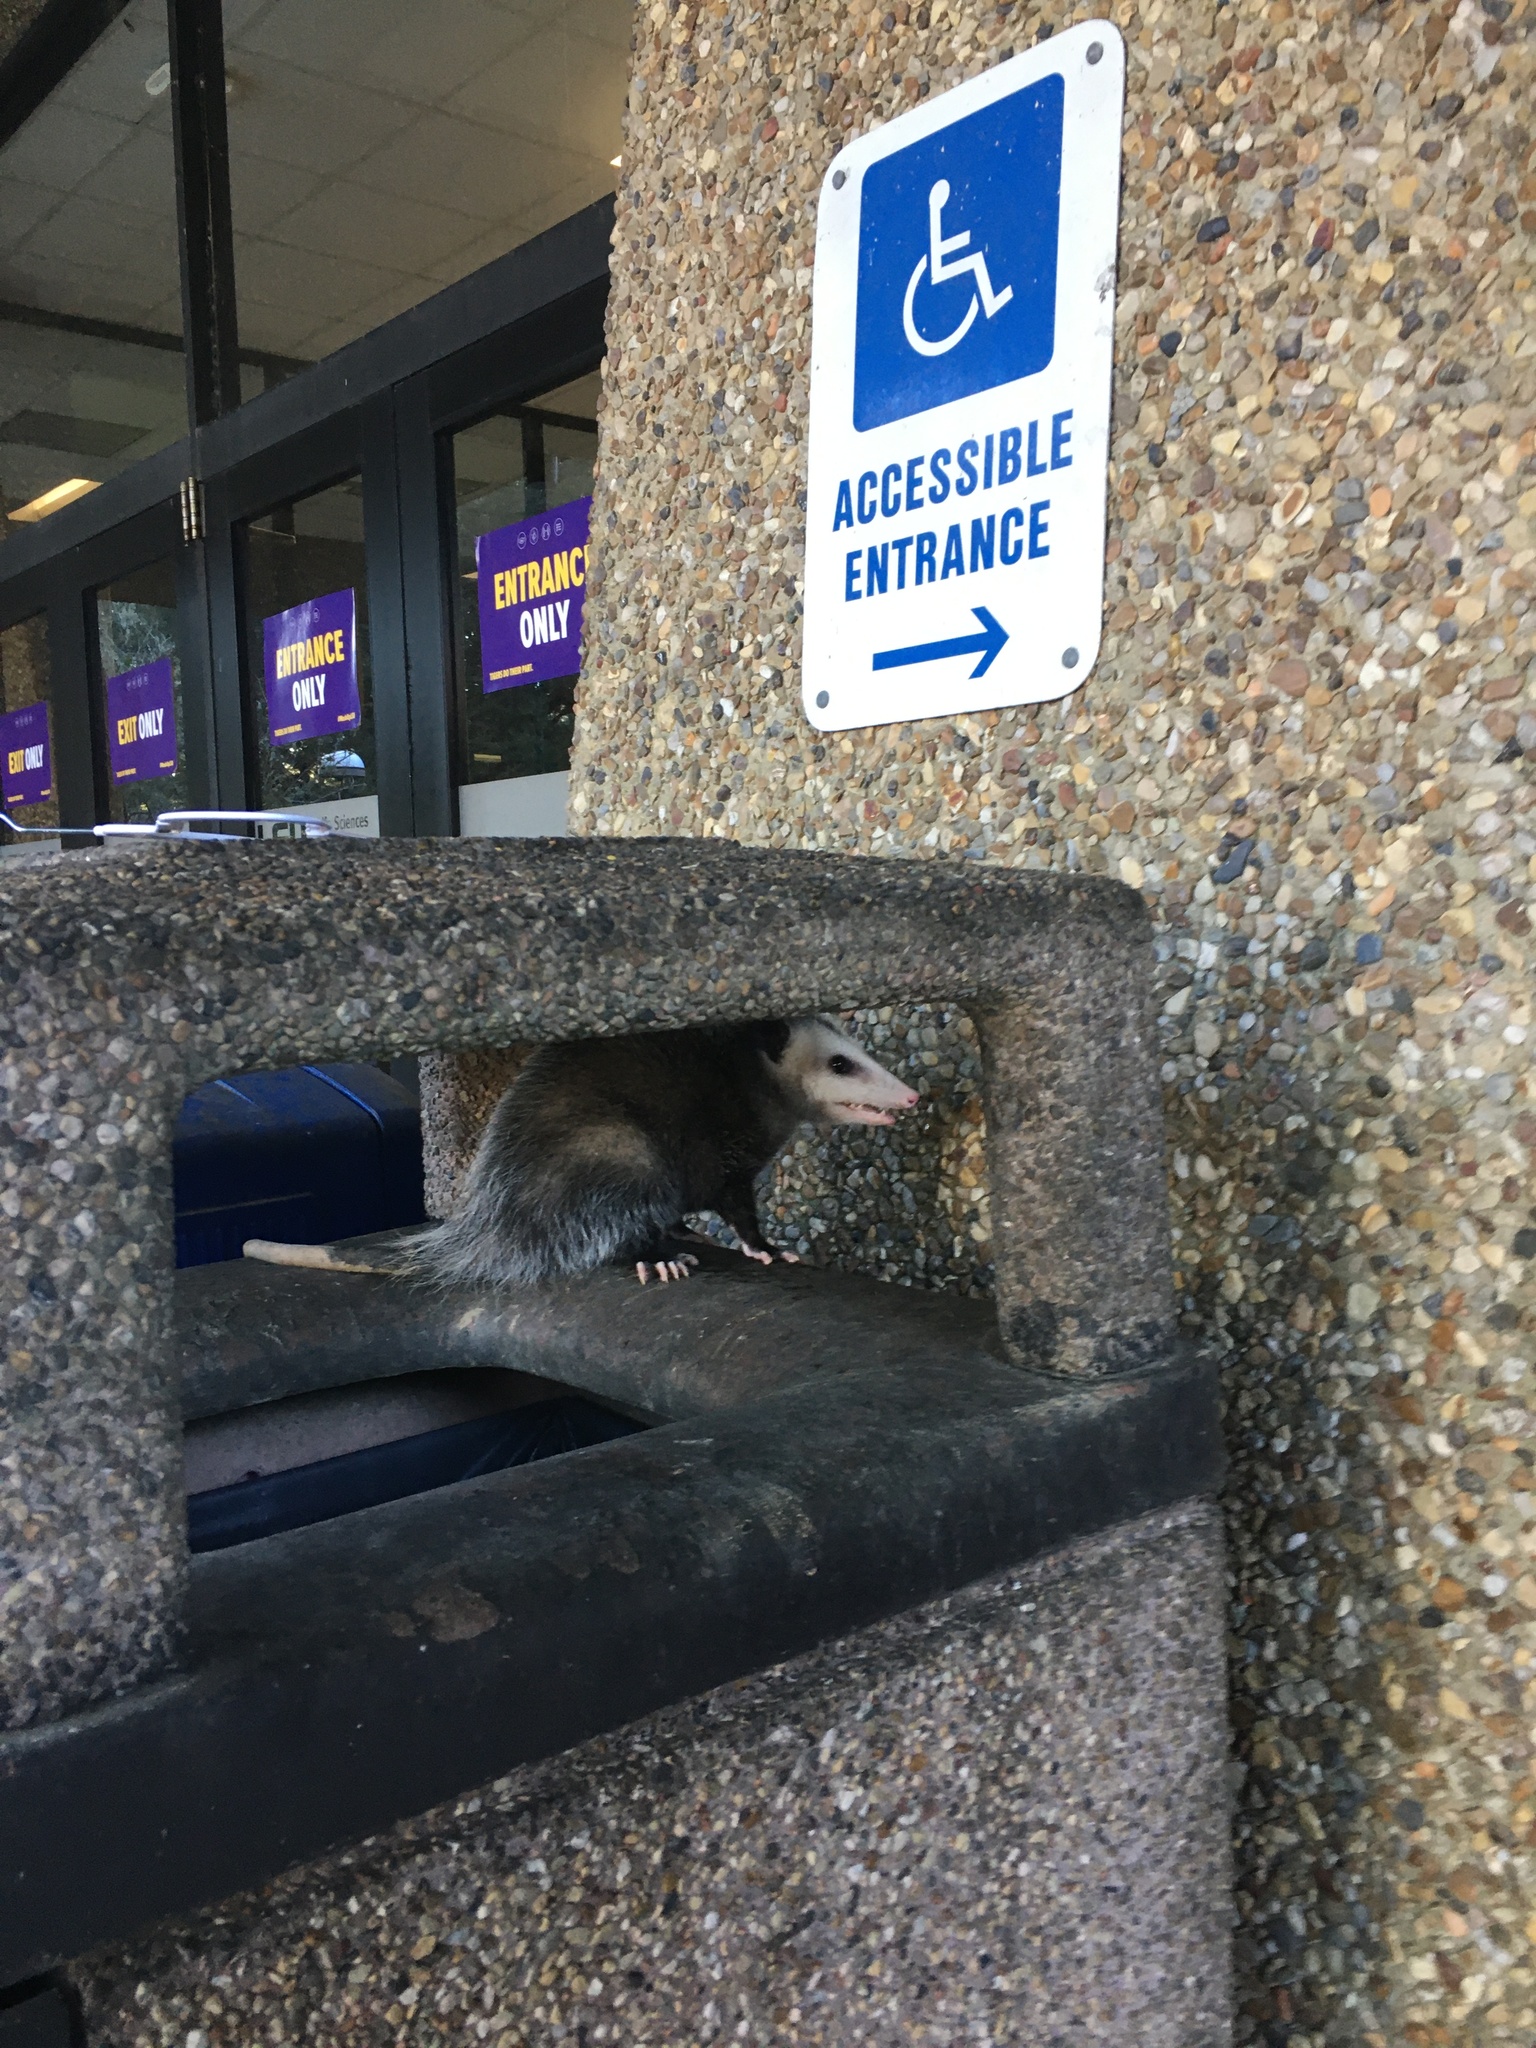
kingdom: Animalia
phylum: Chordata
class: Mammalia
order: Didelphimorphia
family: Didelphidae
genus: Didelphis
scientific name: Didelphis virginiana
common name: Virginia opossum
